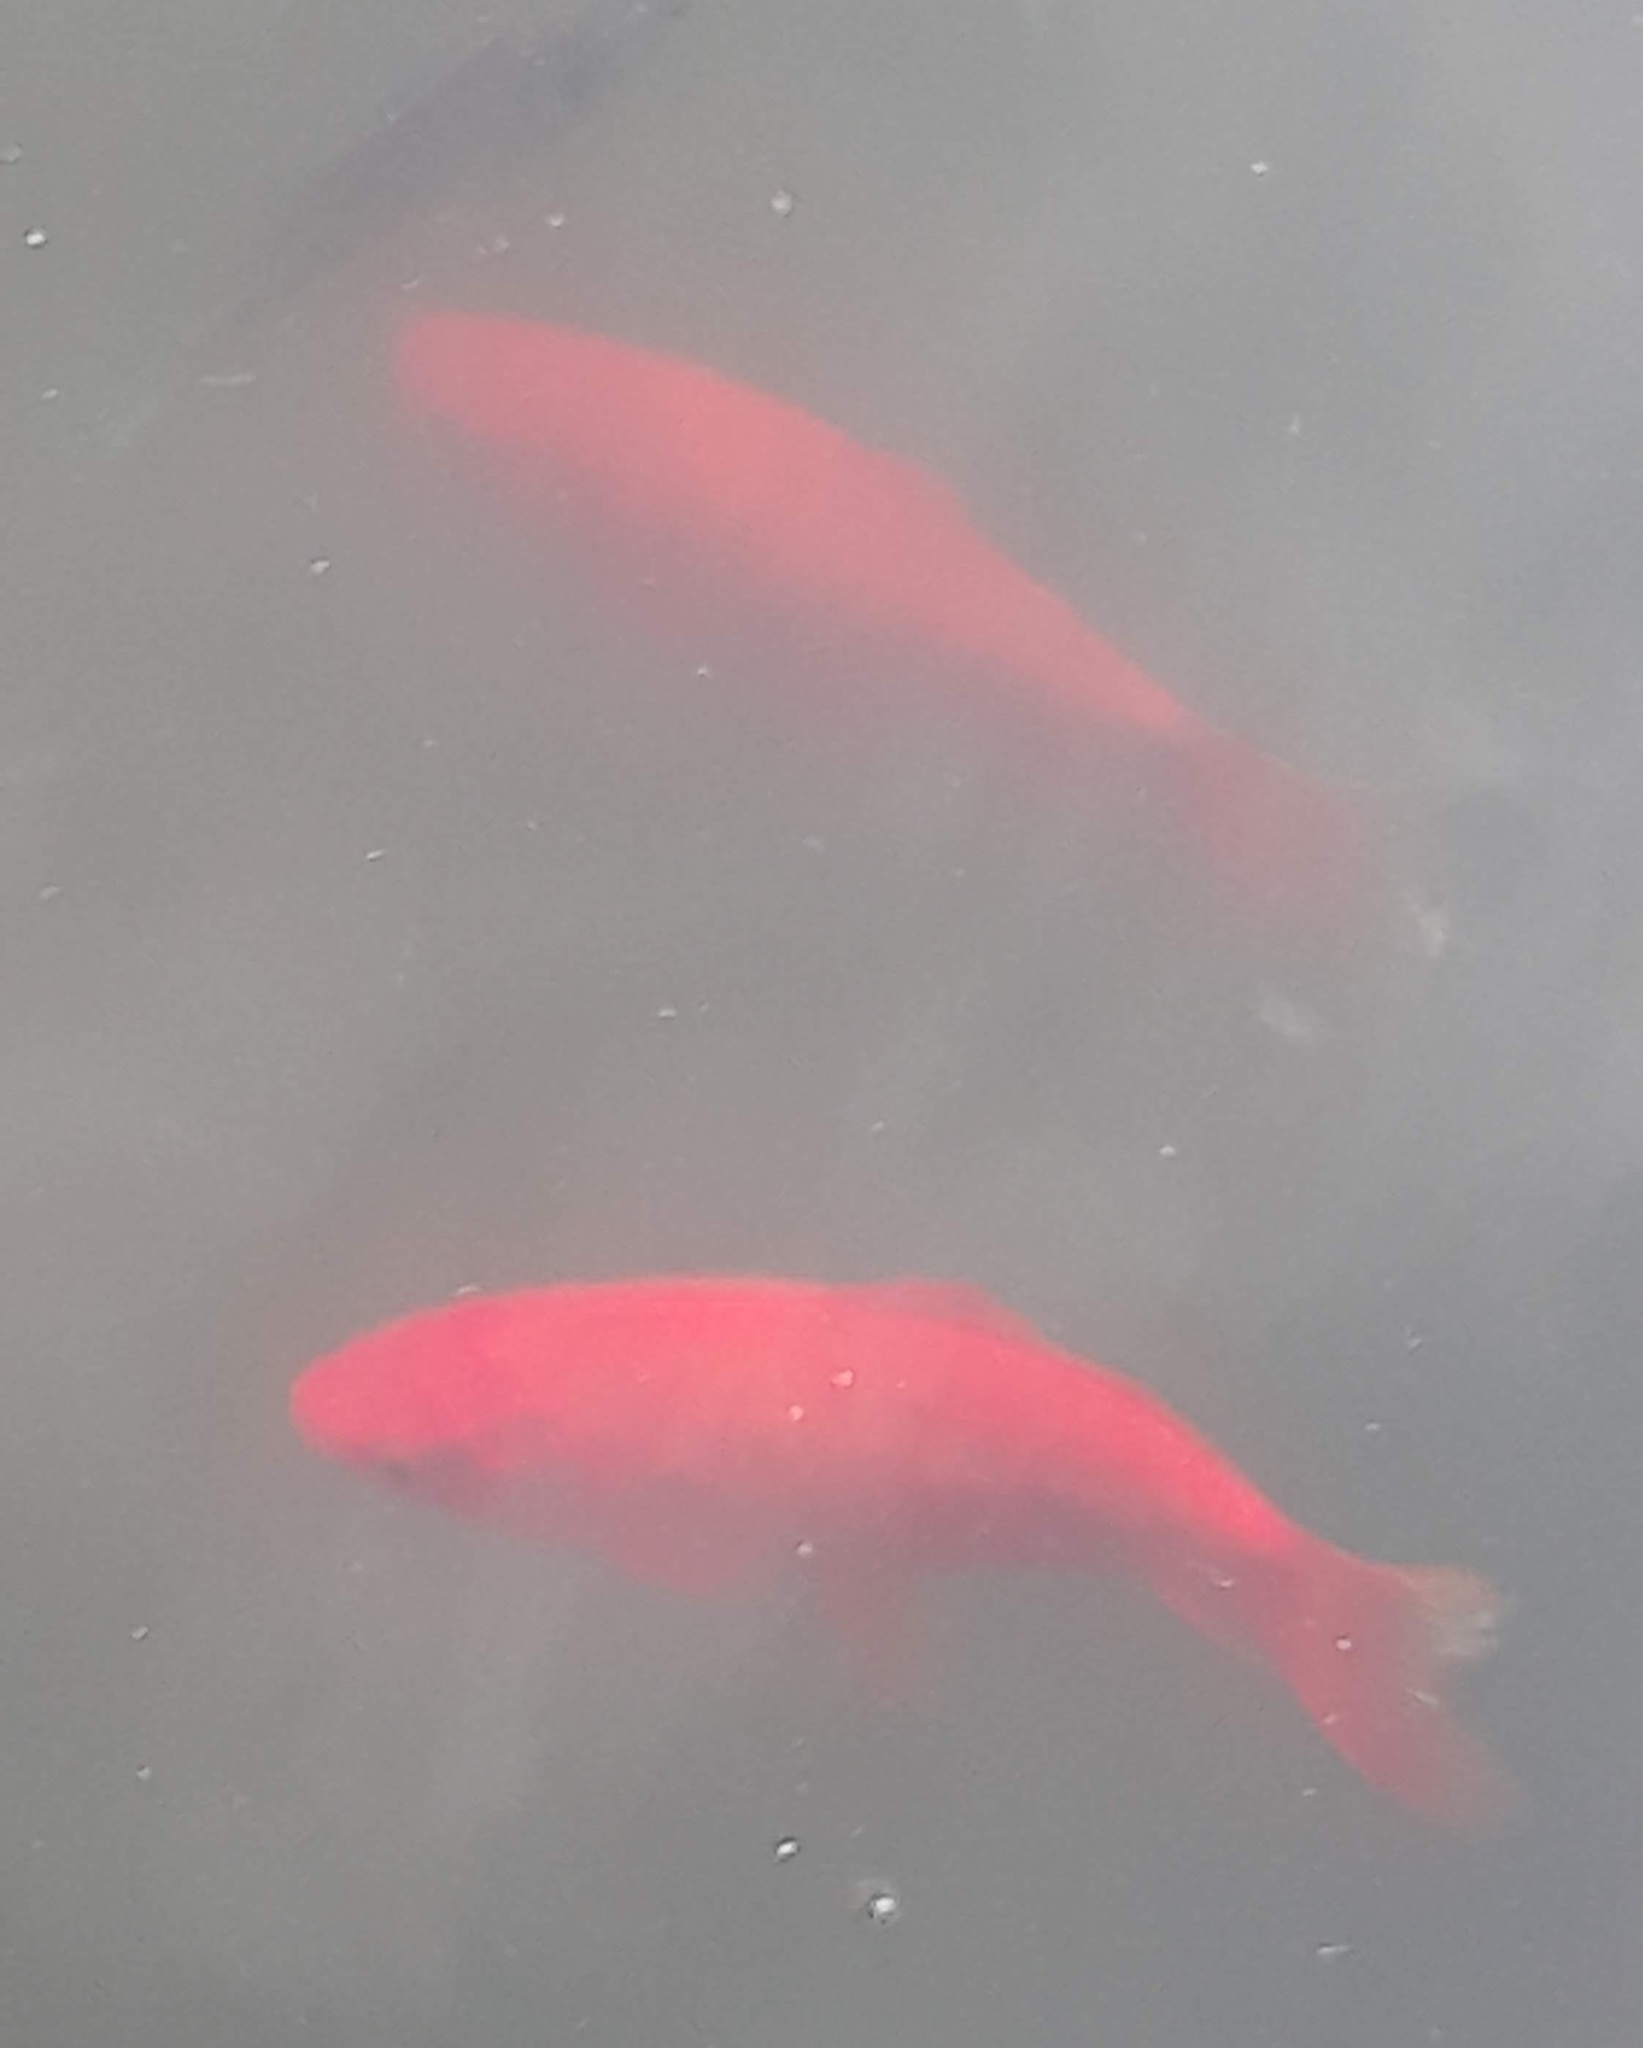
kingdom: Animalia
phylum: Chordata
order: Cypriniformes
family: Cyprinidae
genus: Carassius
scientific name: Carassius auratus
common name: Goldfish
